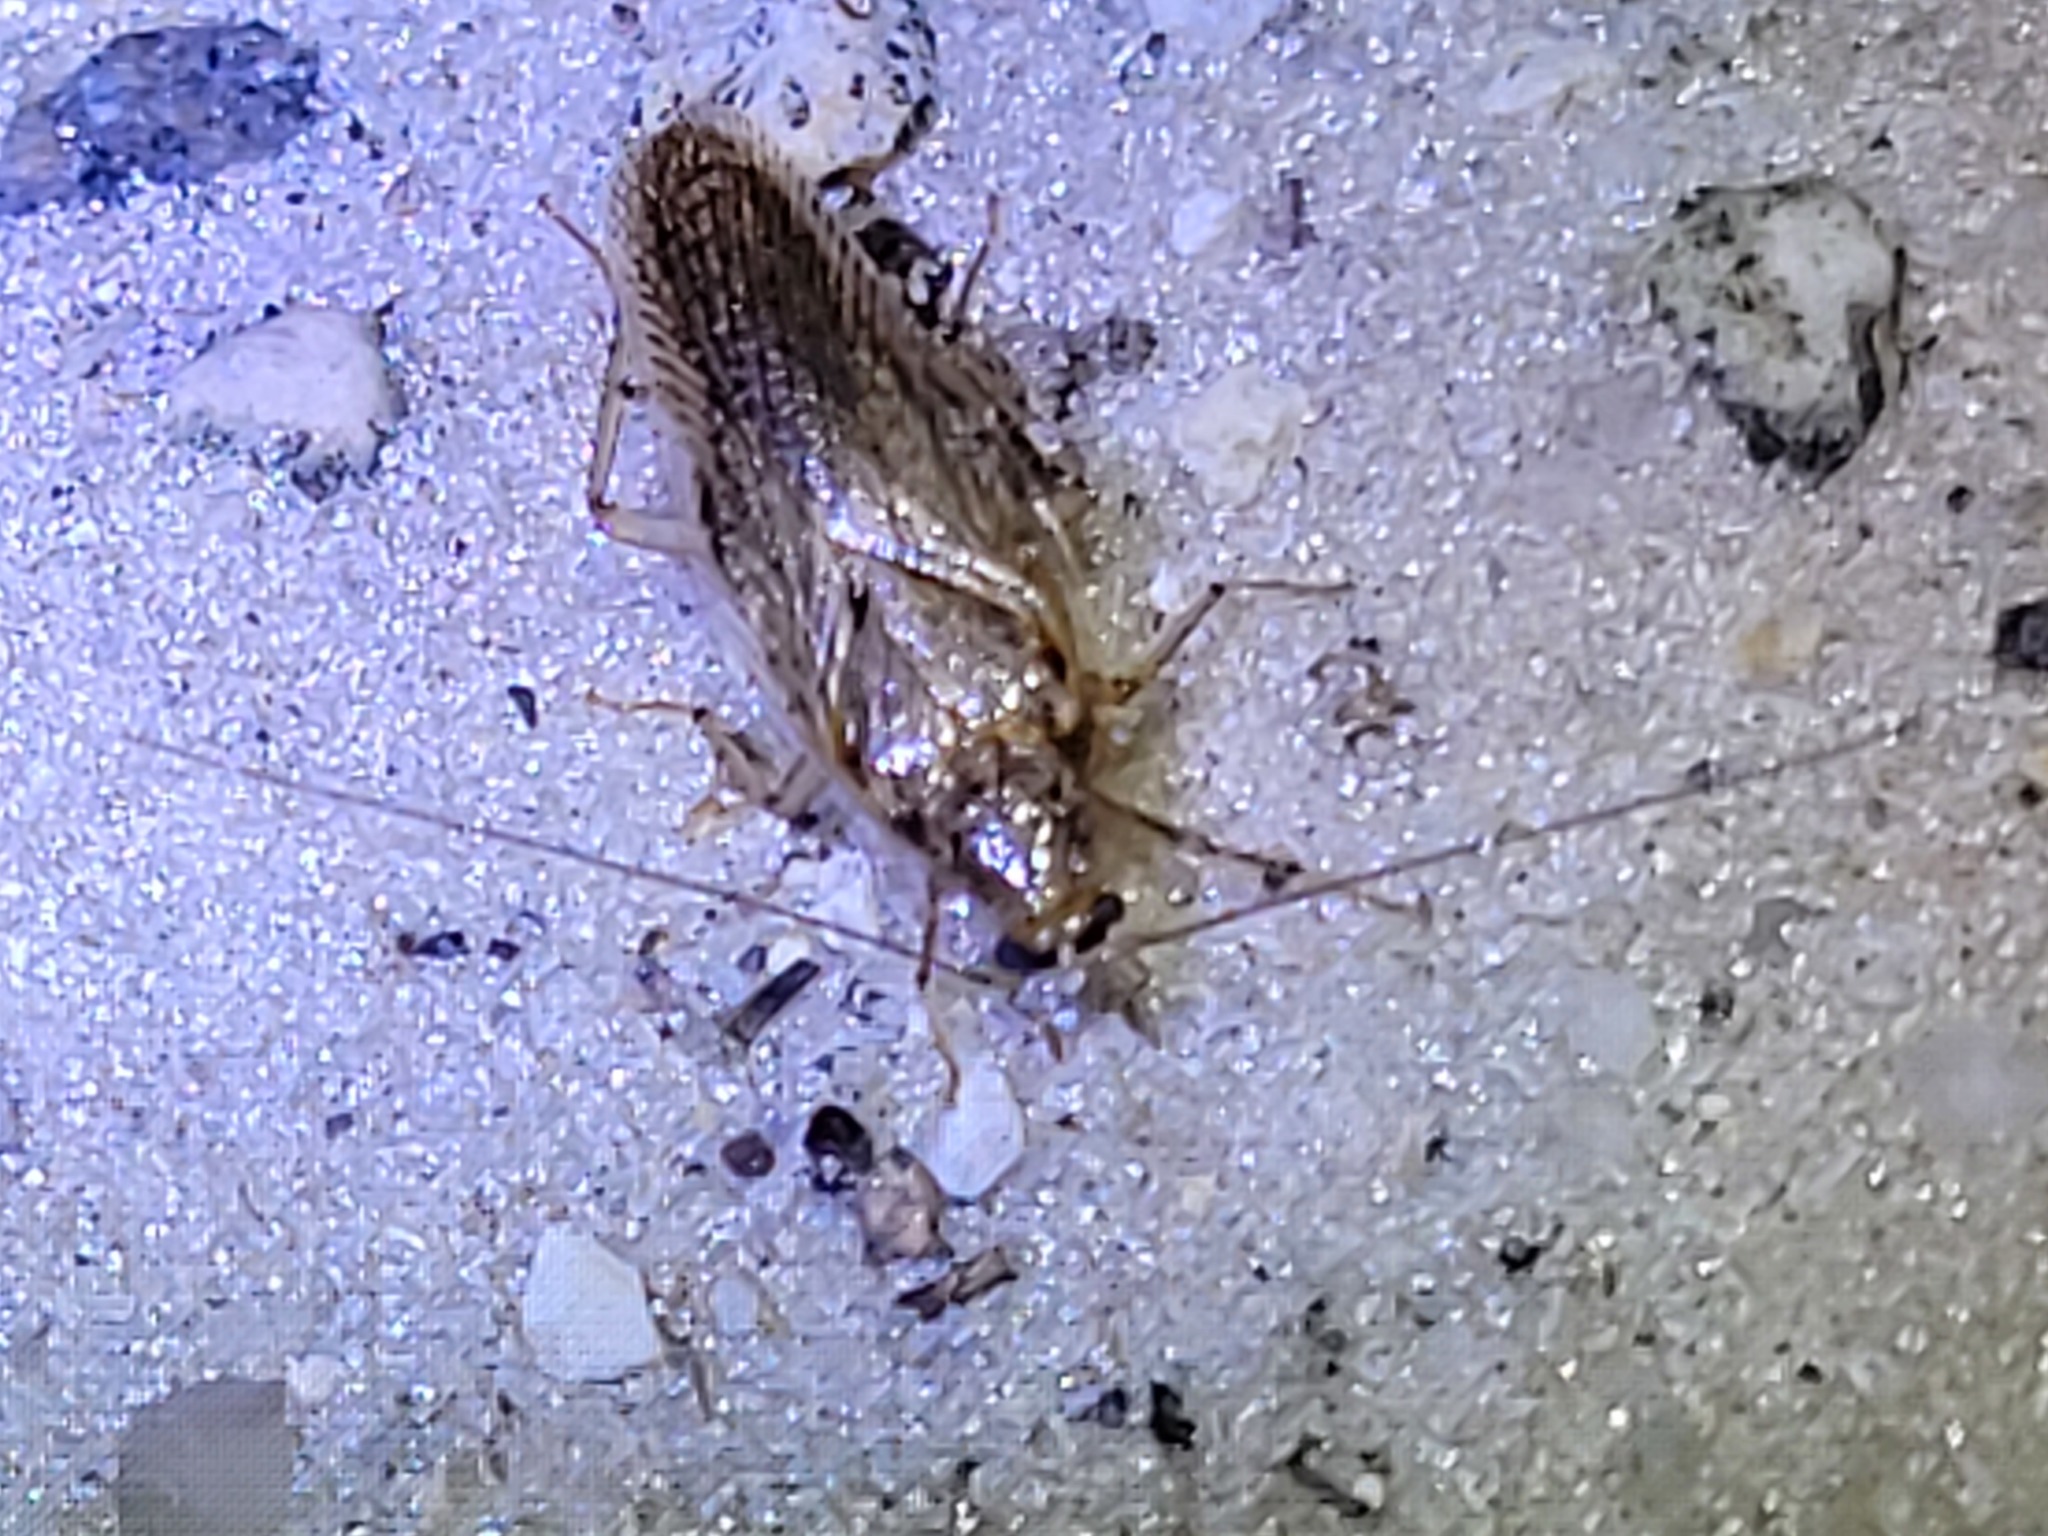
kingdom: Animalia
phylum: Arthropoda
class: Insecta
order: Blattodea
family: Ectobiidae
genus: Neoblattella
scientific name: Neoblattella detersa
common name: Wood cockroach
